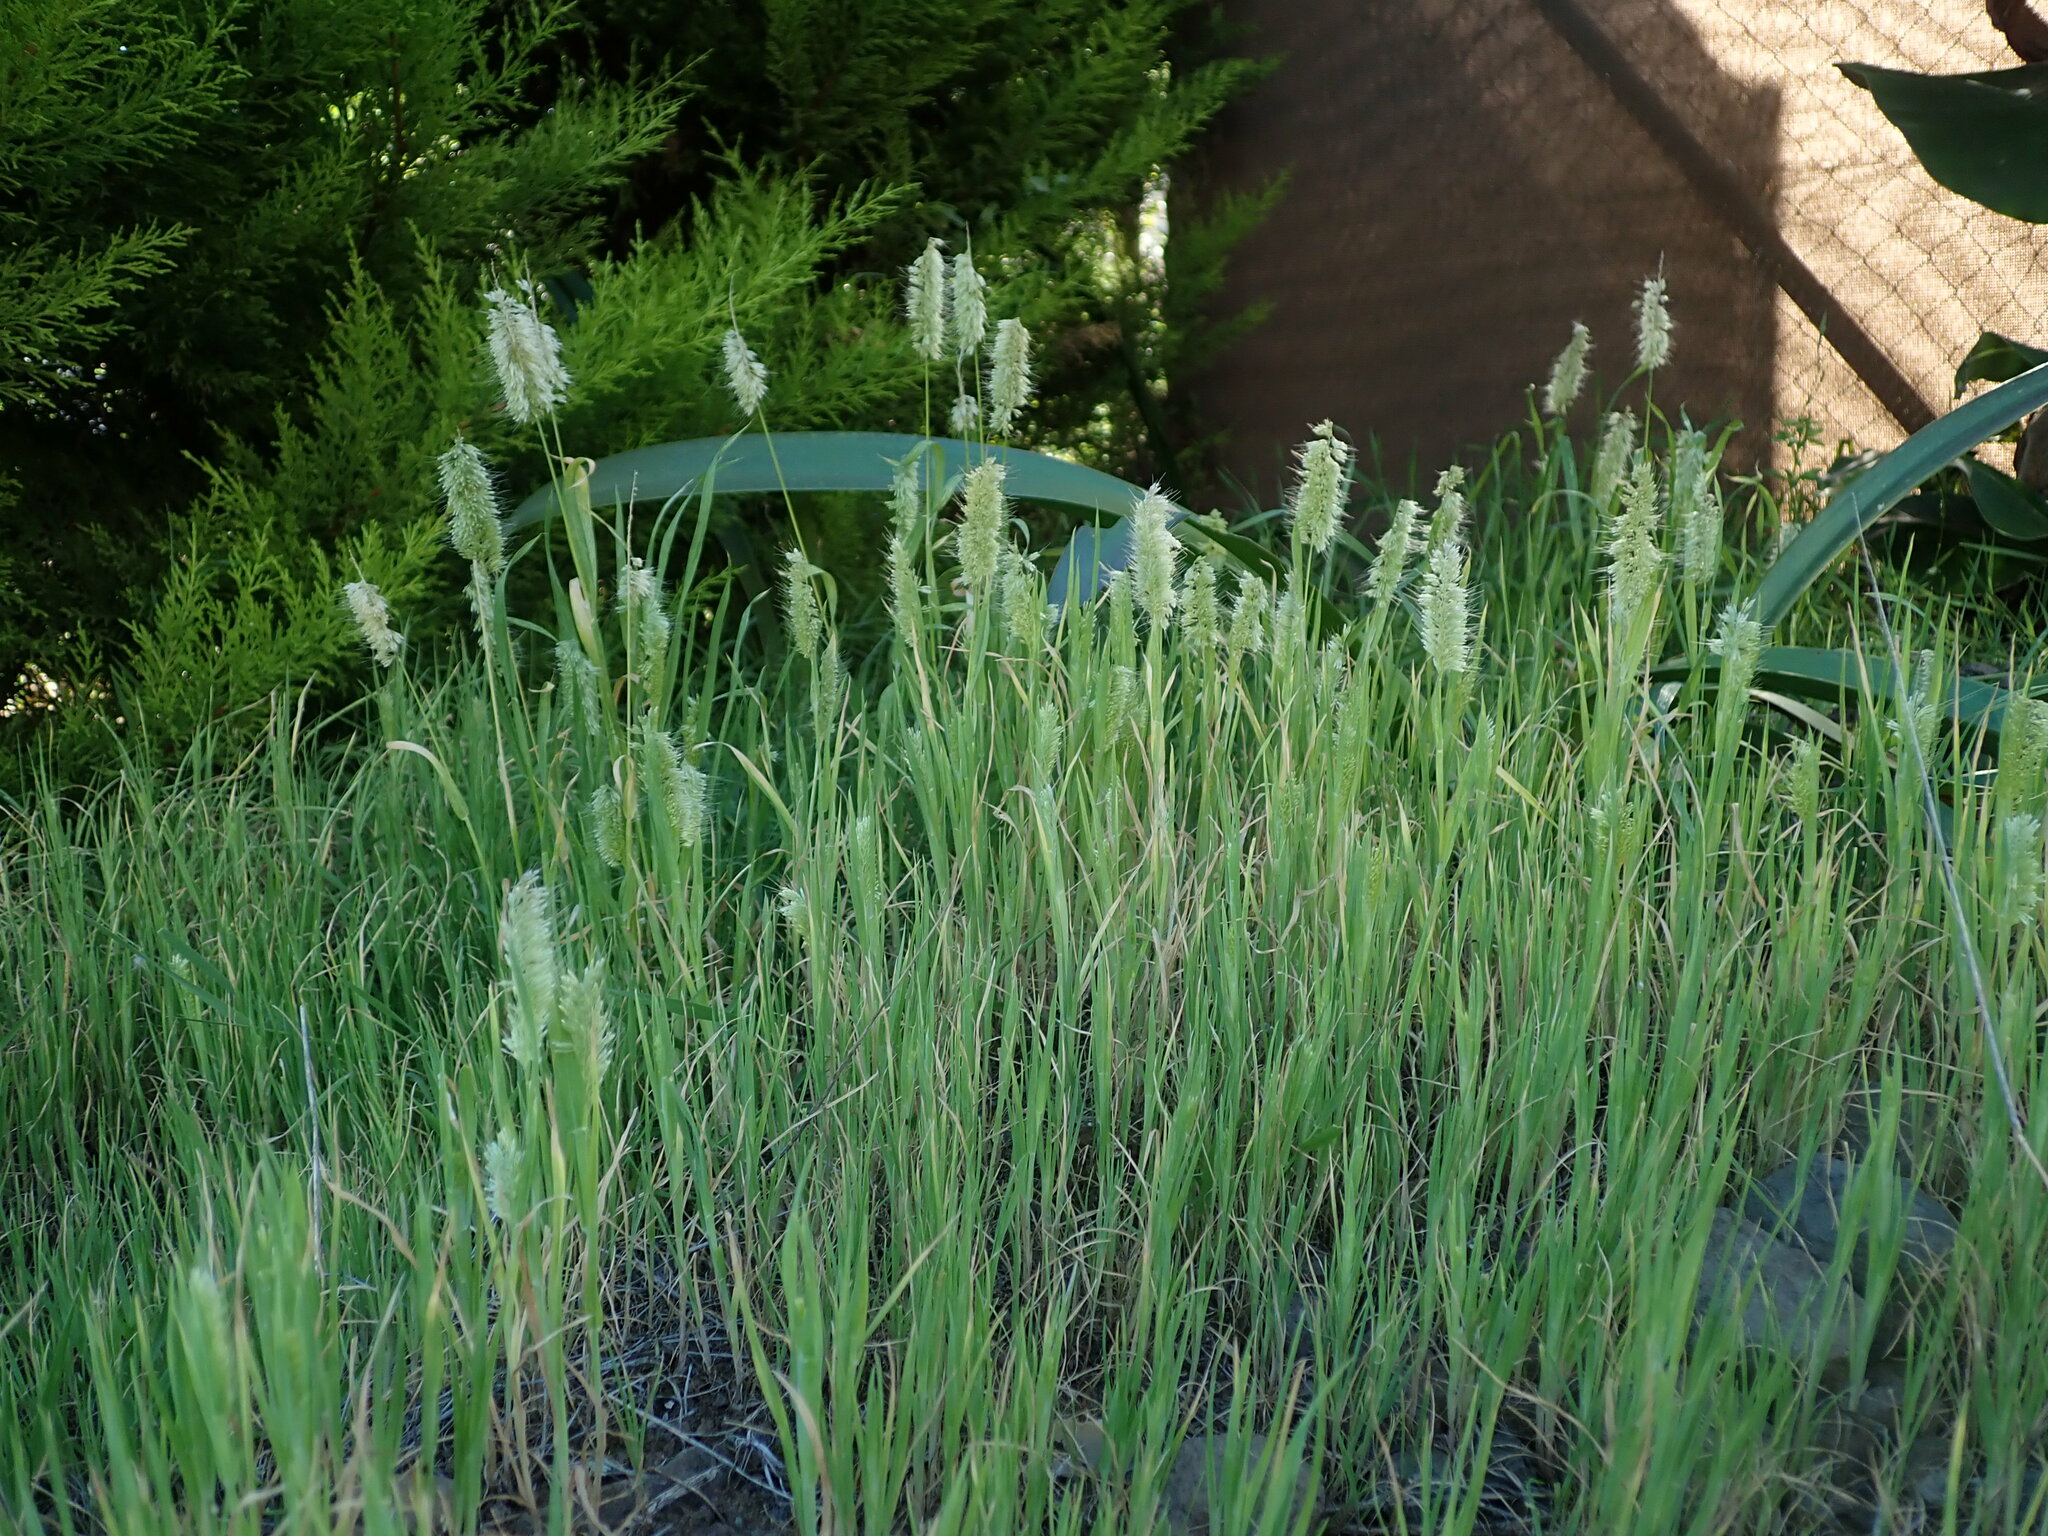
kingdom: Plantae
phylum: Tracheophyta
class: Liliopsida
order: Poales
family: Poaceae
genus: Lamarckia
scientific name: Lamarckia aurea
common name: Golden dog's-tail
